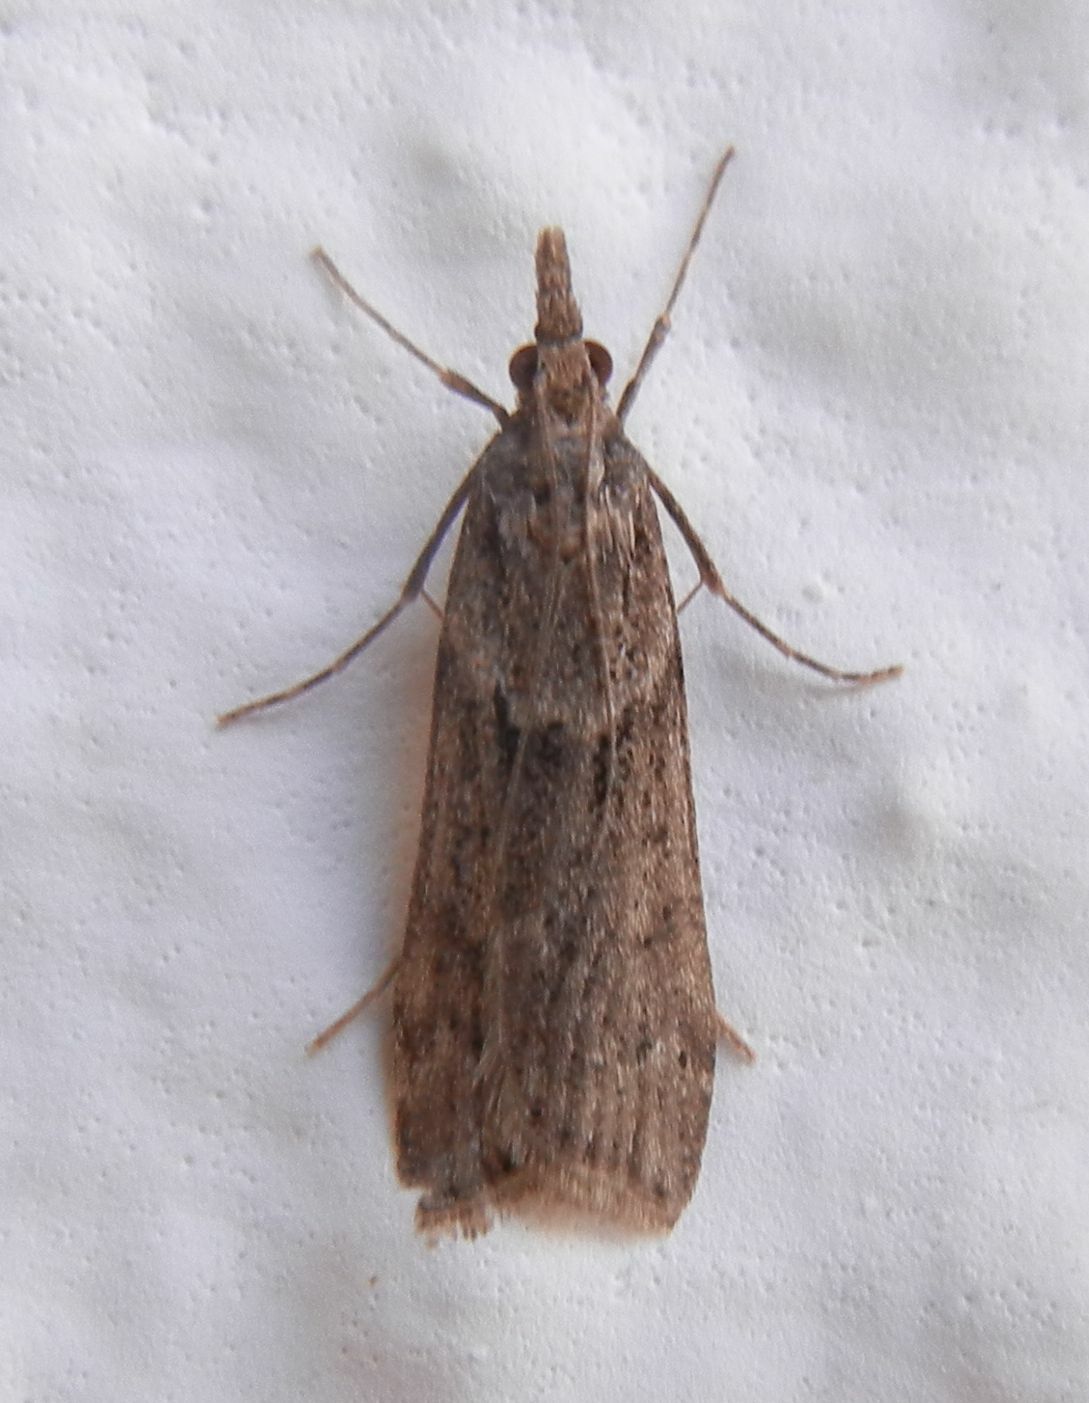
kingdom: Animalia
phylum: Arthropoda
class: Insecta
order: Lepidoptera
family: Crambidae
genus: Eudonia
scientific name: Eudonia angustea
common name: Narrow-winged grey
